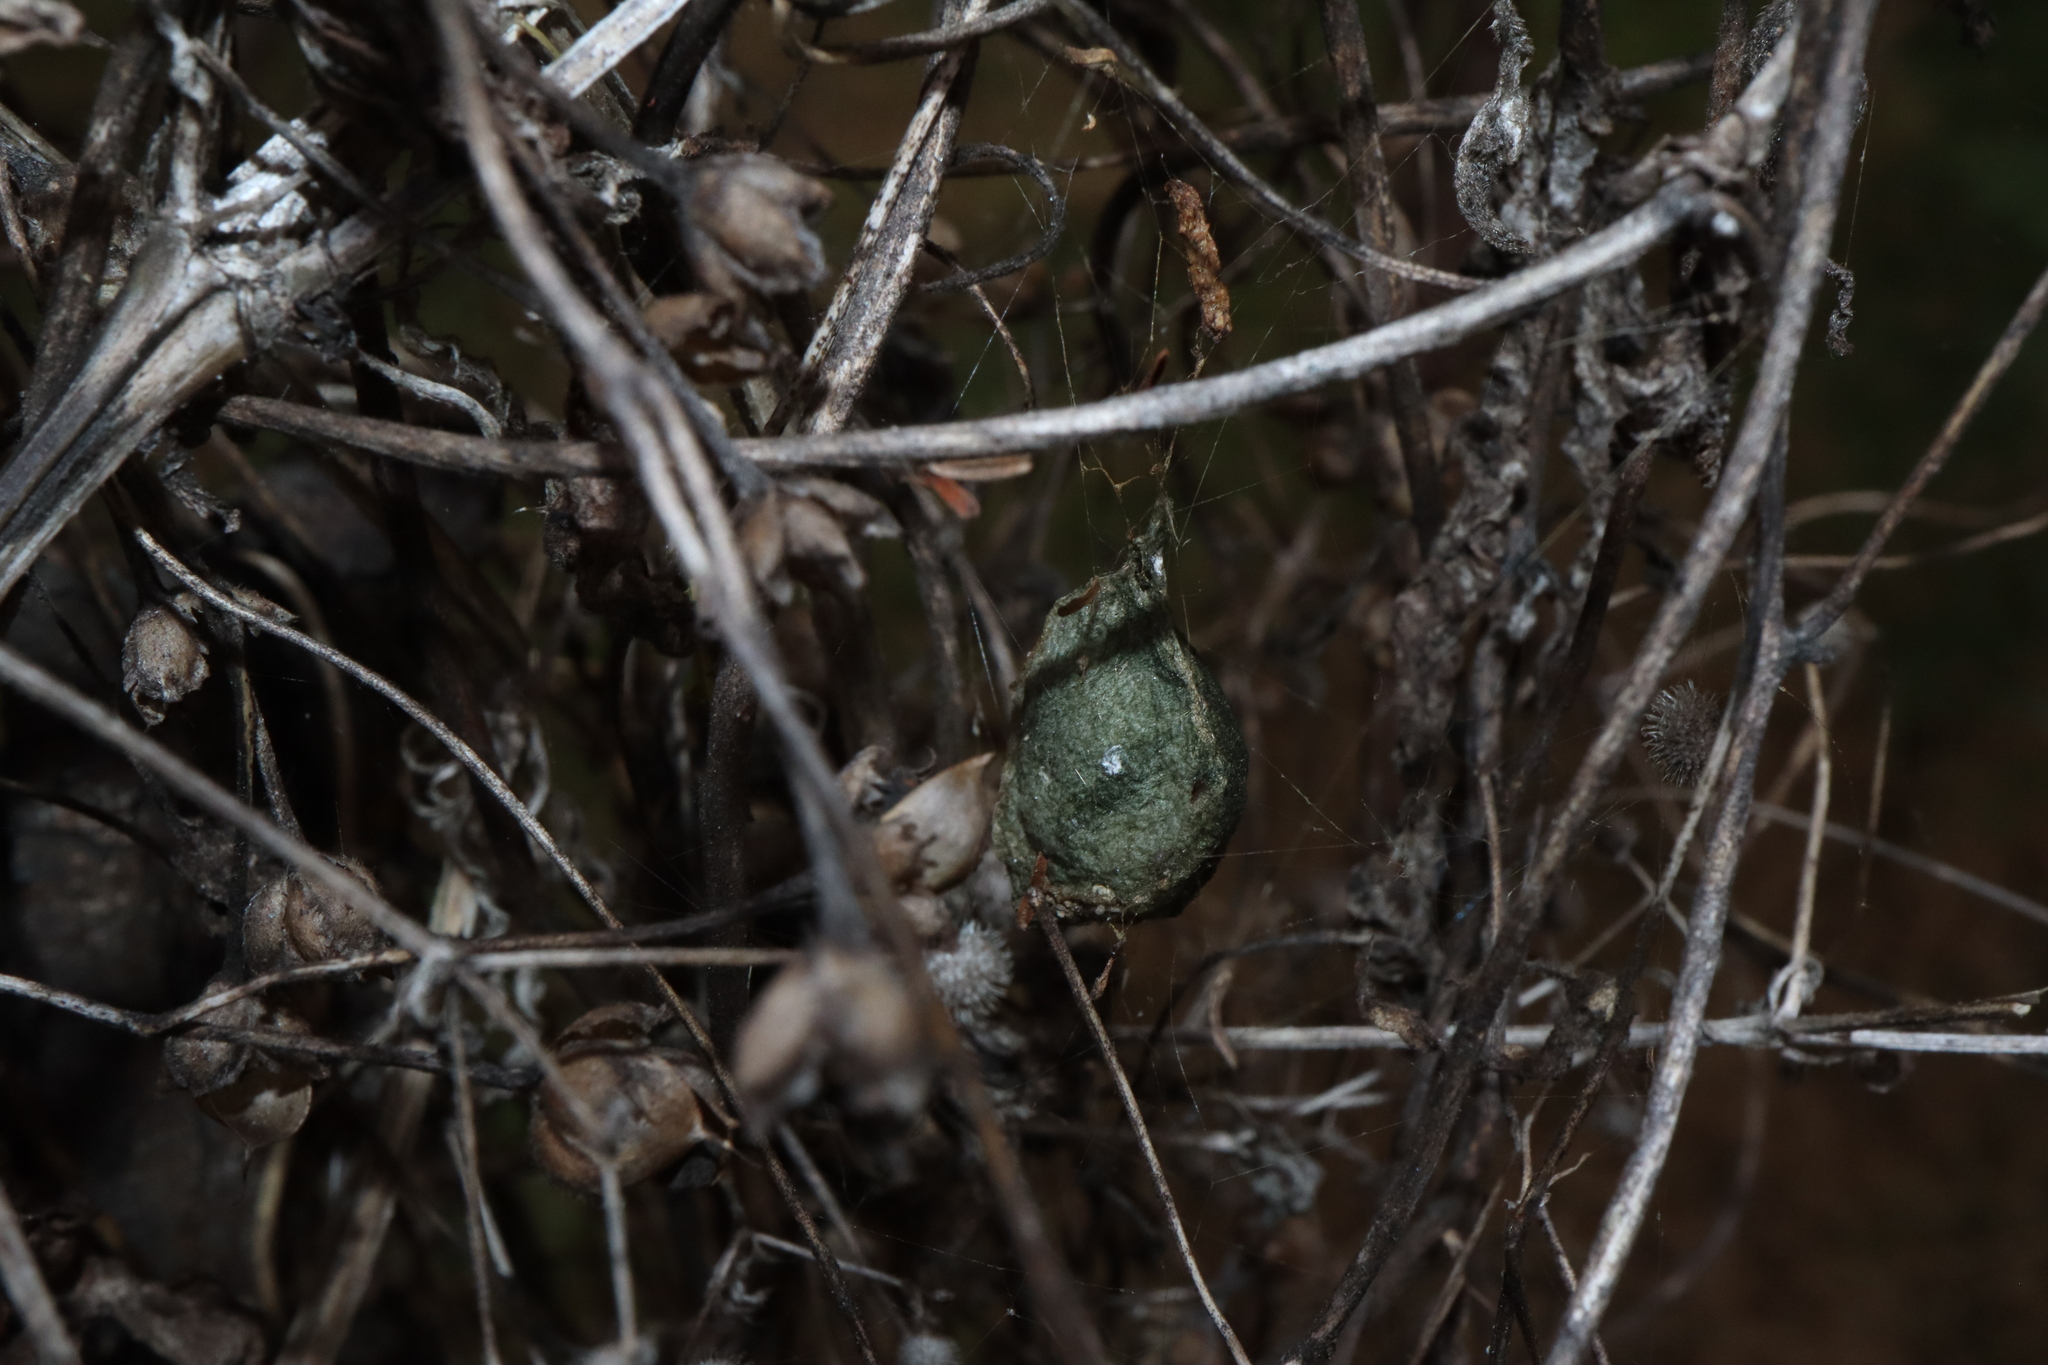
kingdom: Animalia
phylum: Arthropoda
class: Arachnida
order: Araneae
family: Araneidae
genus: Argiope
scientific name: Argiope keyserlingi
